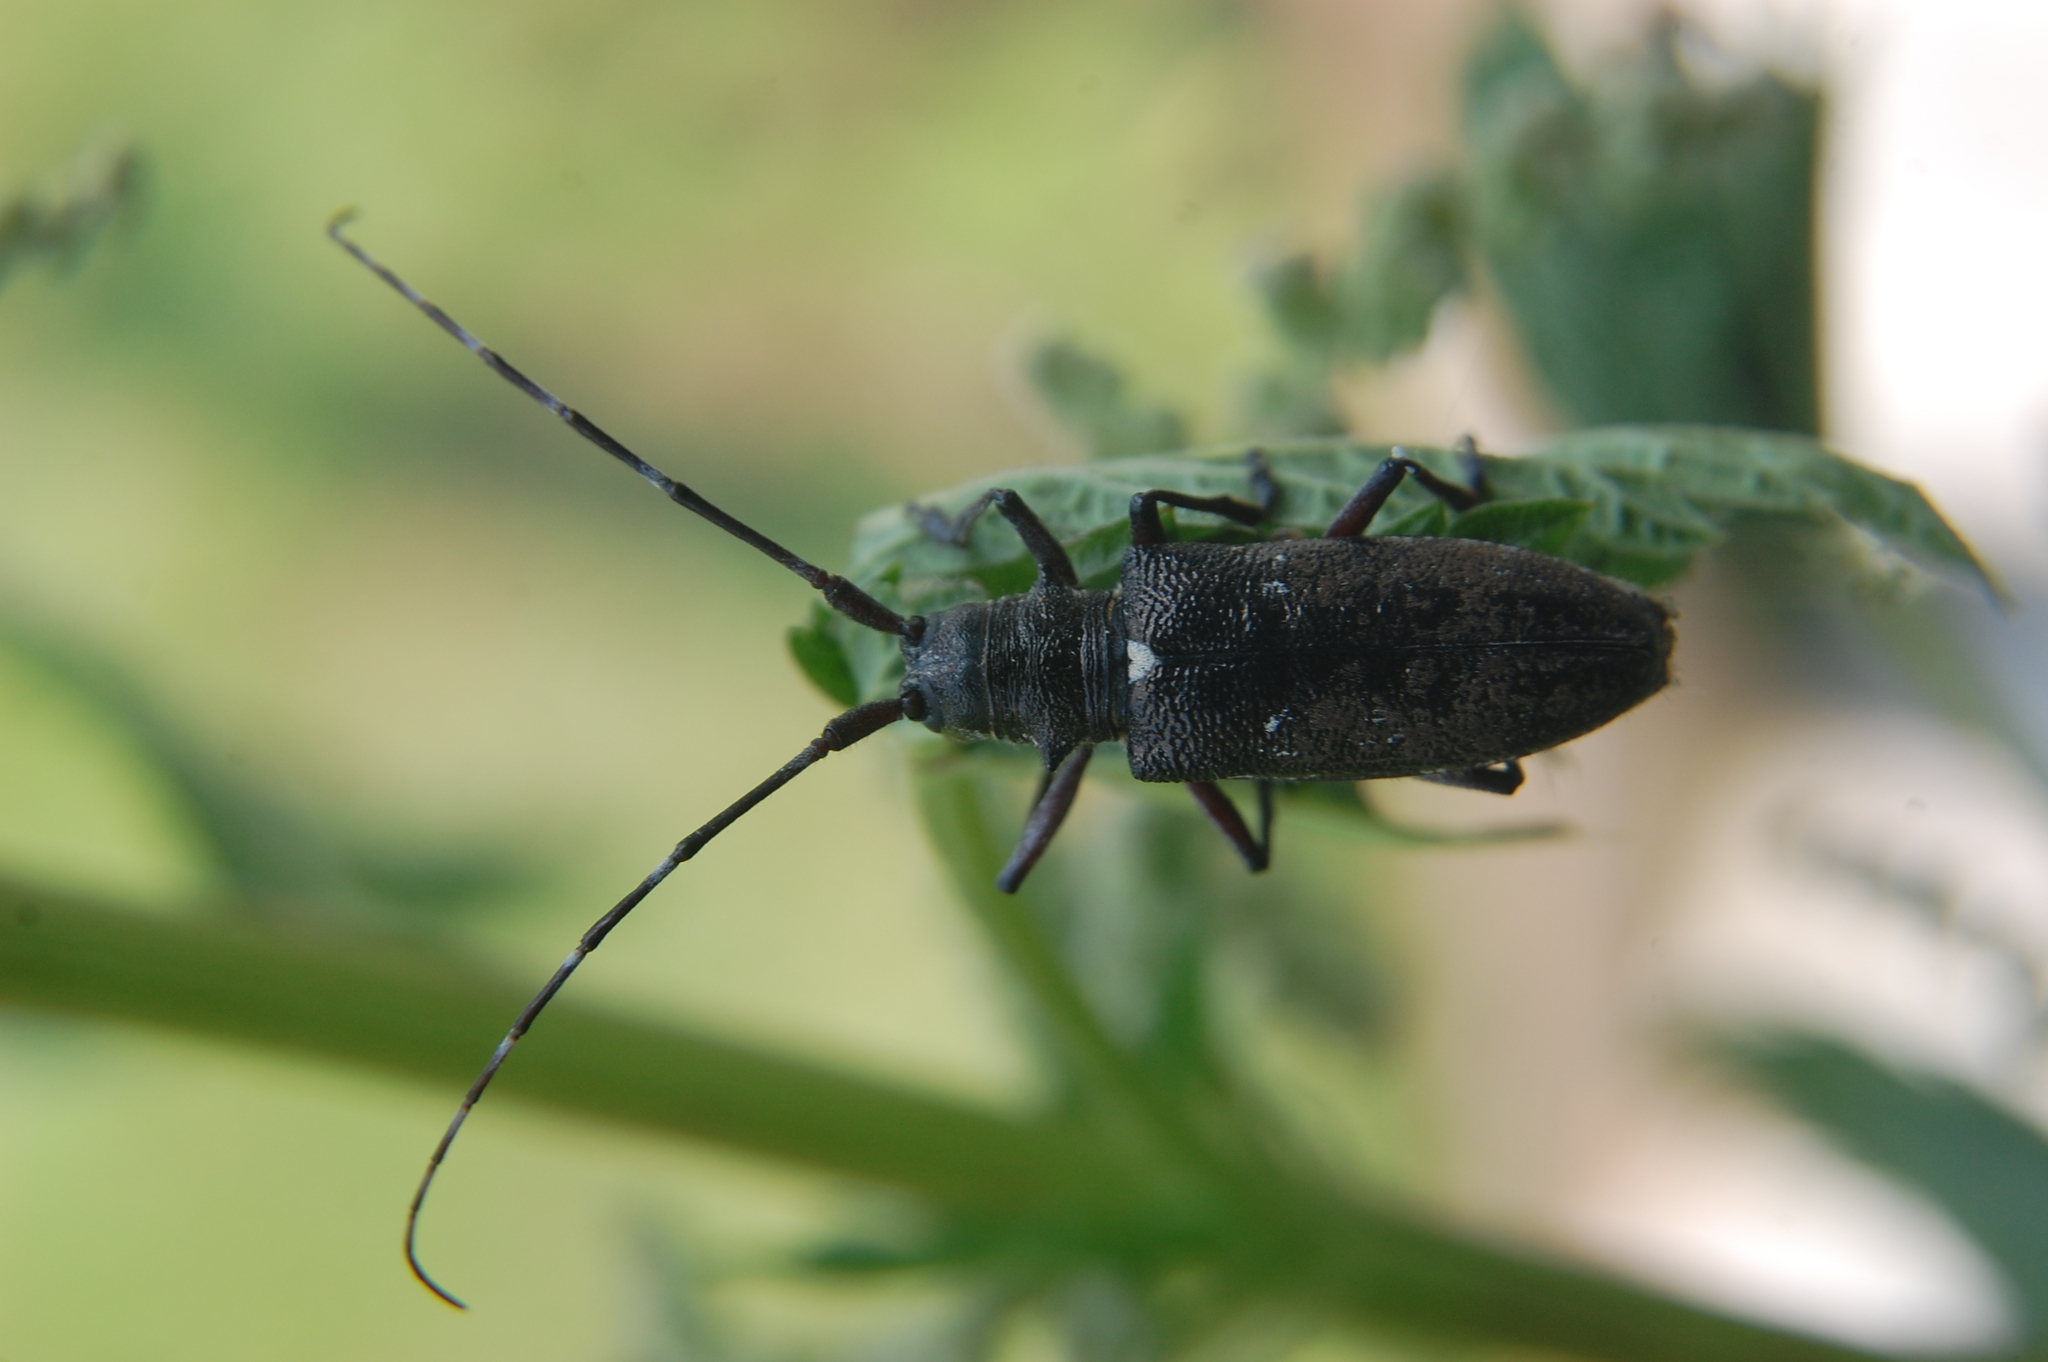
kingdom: Animalia
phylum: Arthropoda
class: Insecta
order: Coleoptera
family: Cerambycidae
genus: Monochamus
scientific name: Monochamus scutellatus
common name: White-spotted sawyer beetle
